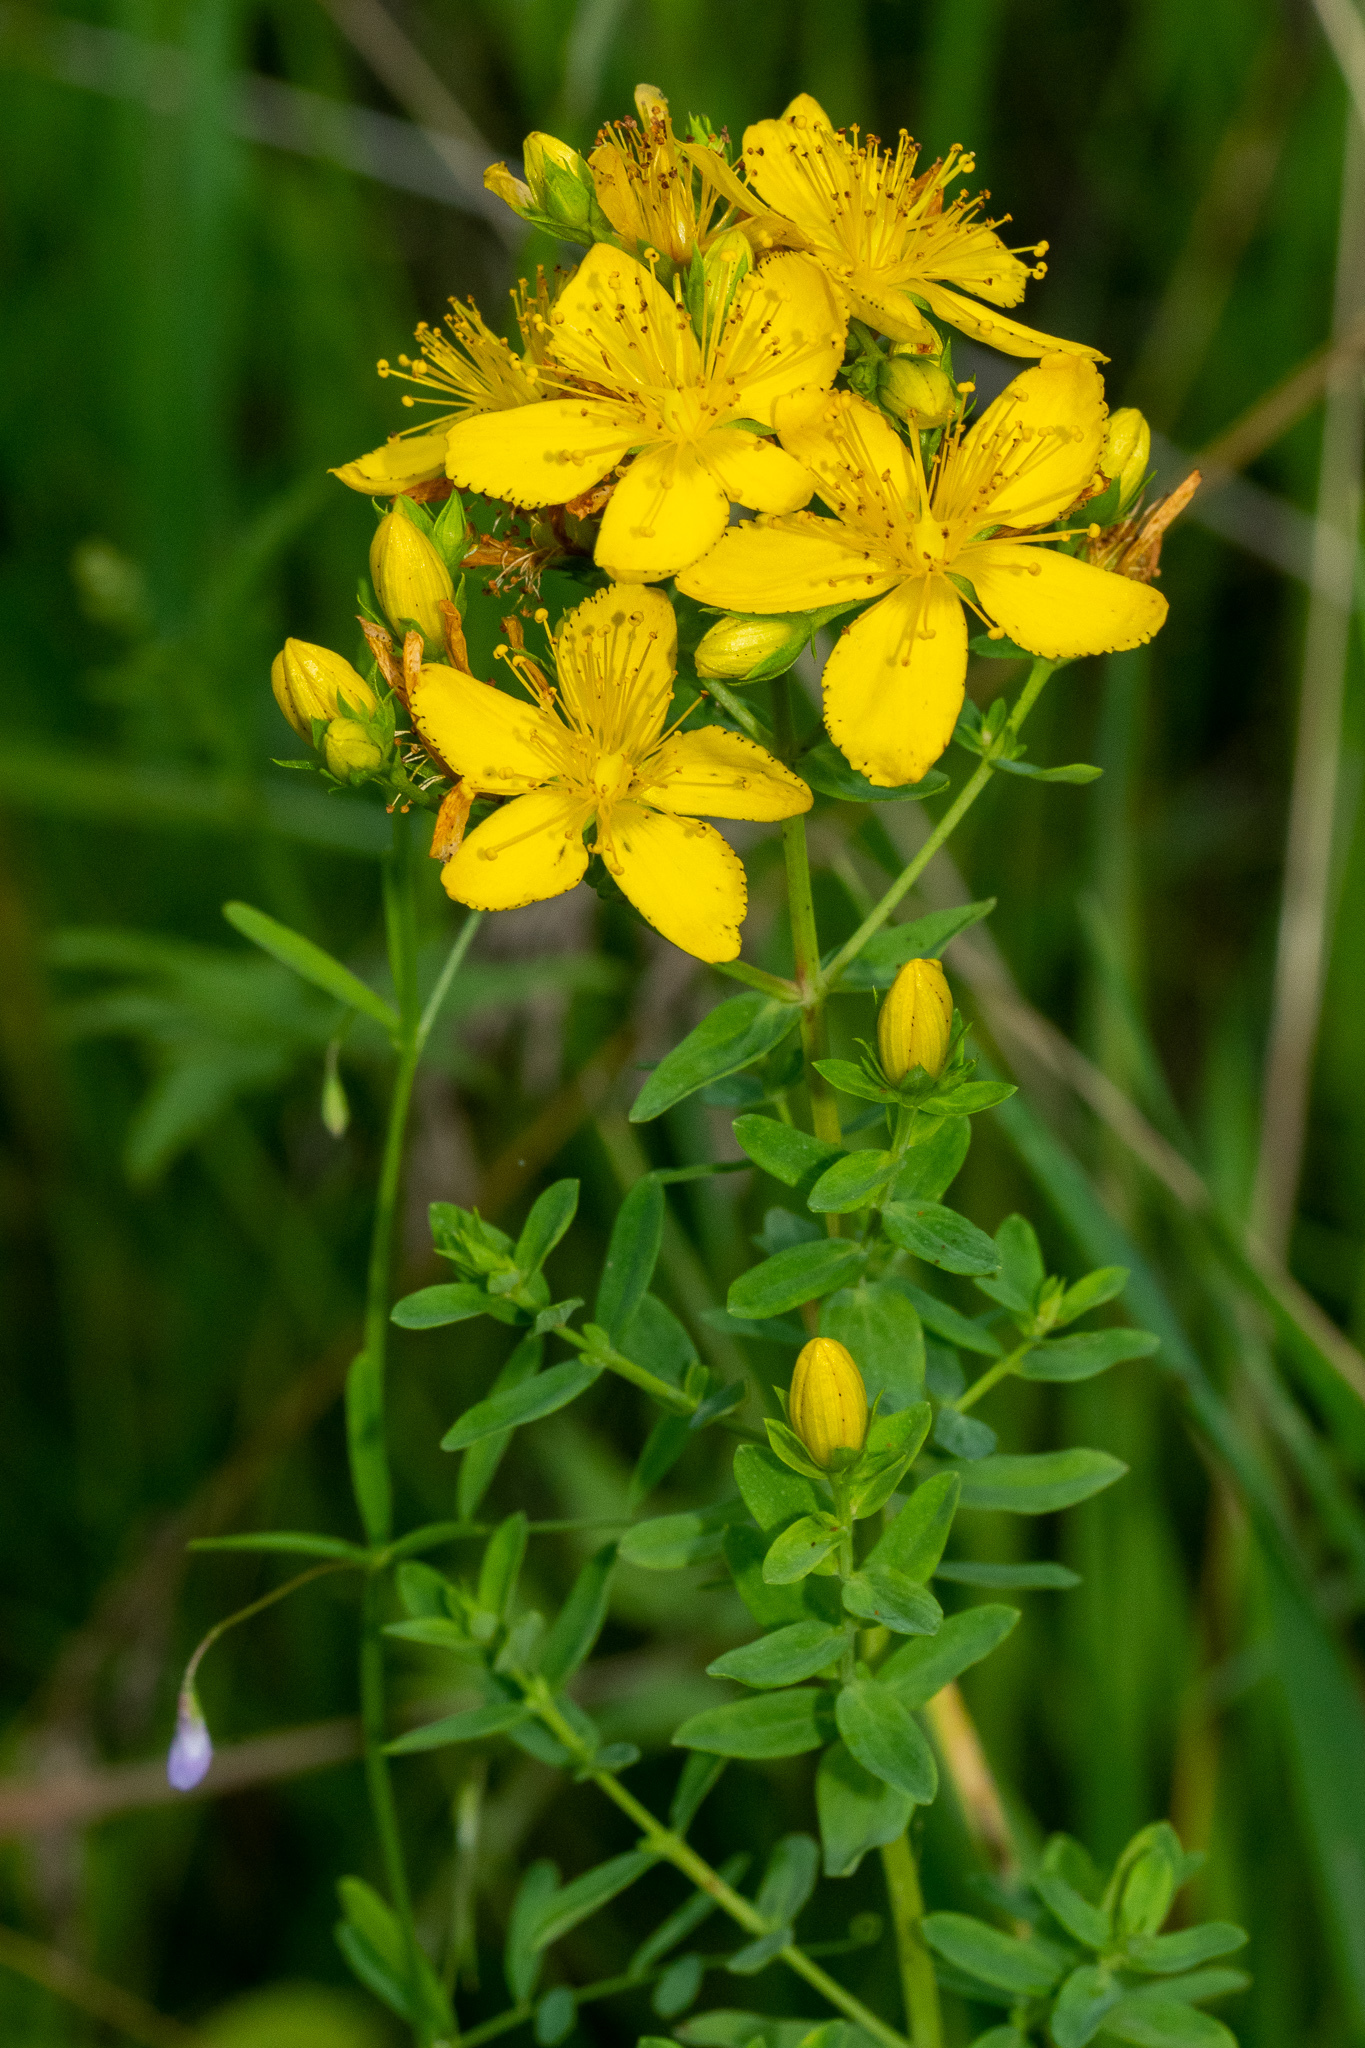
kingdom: Plantae
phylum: Tracheophyta
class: Magnoliopsida
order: Malpighiales
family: Hypericaceae
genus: Hypericum
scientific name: Hypericum perforatum
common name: Common st. johnswort
